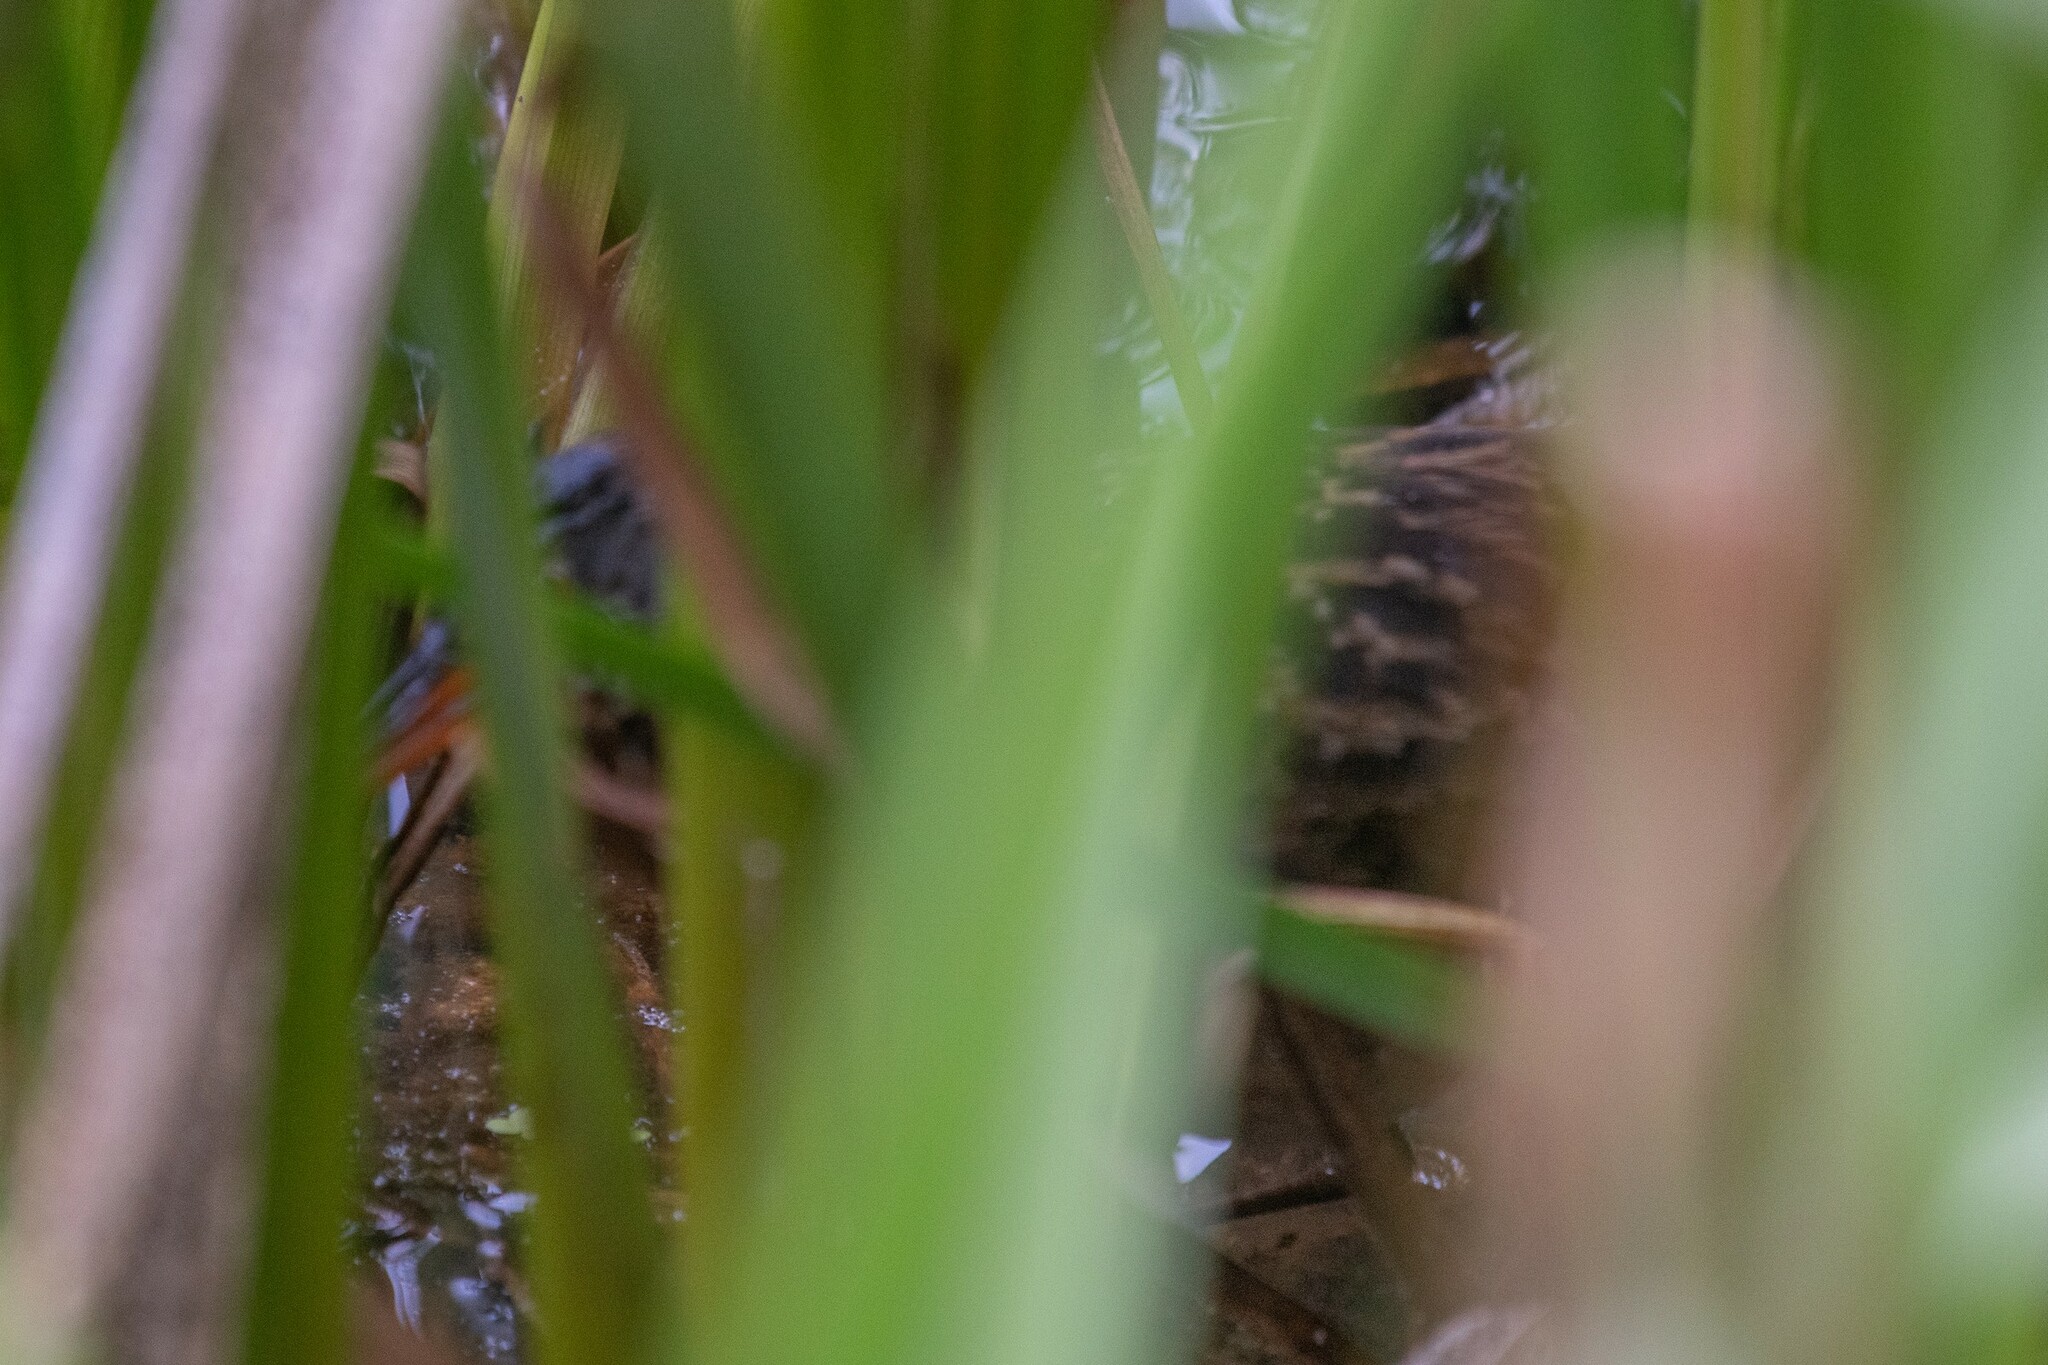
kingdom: Animalia
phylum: Chordata
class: Aves
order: Gruiformes
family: Rallidae
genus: Rallus
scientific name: Rallus limicola
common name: Virginia rail
